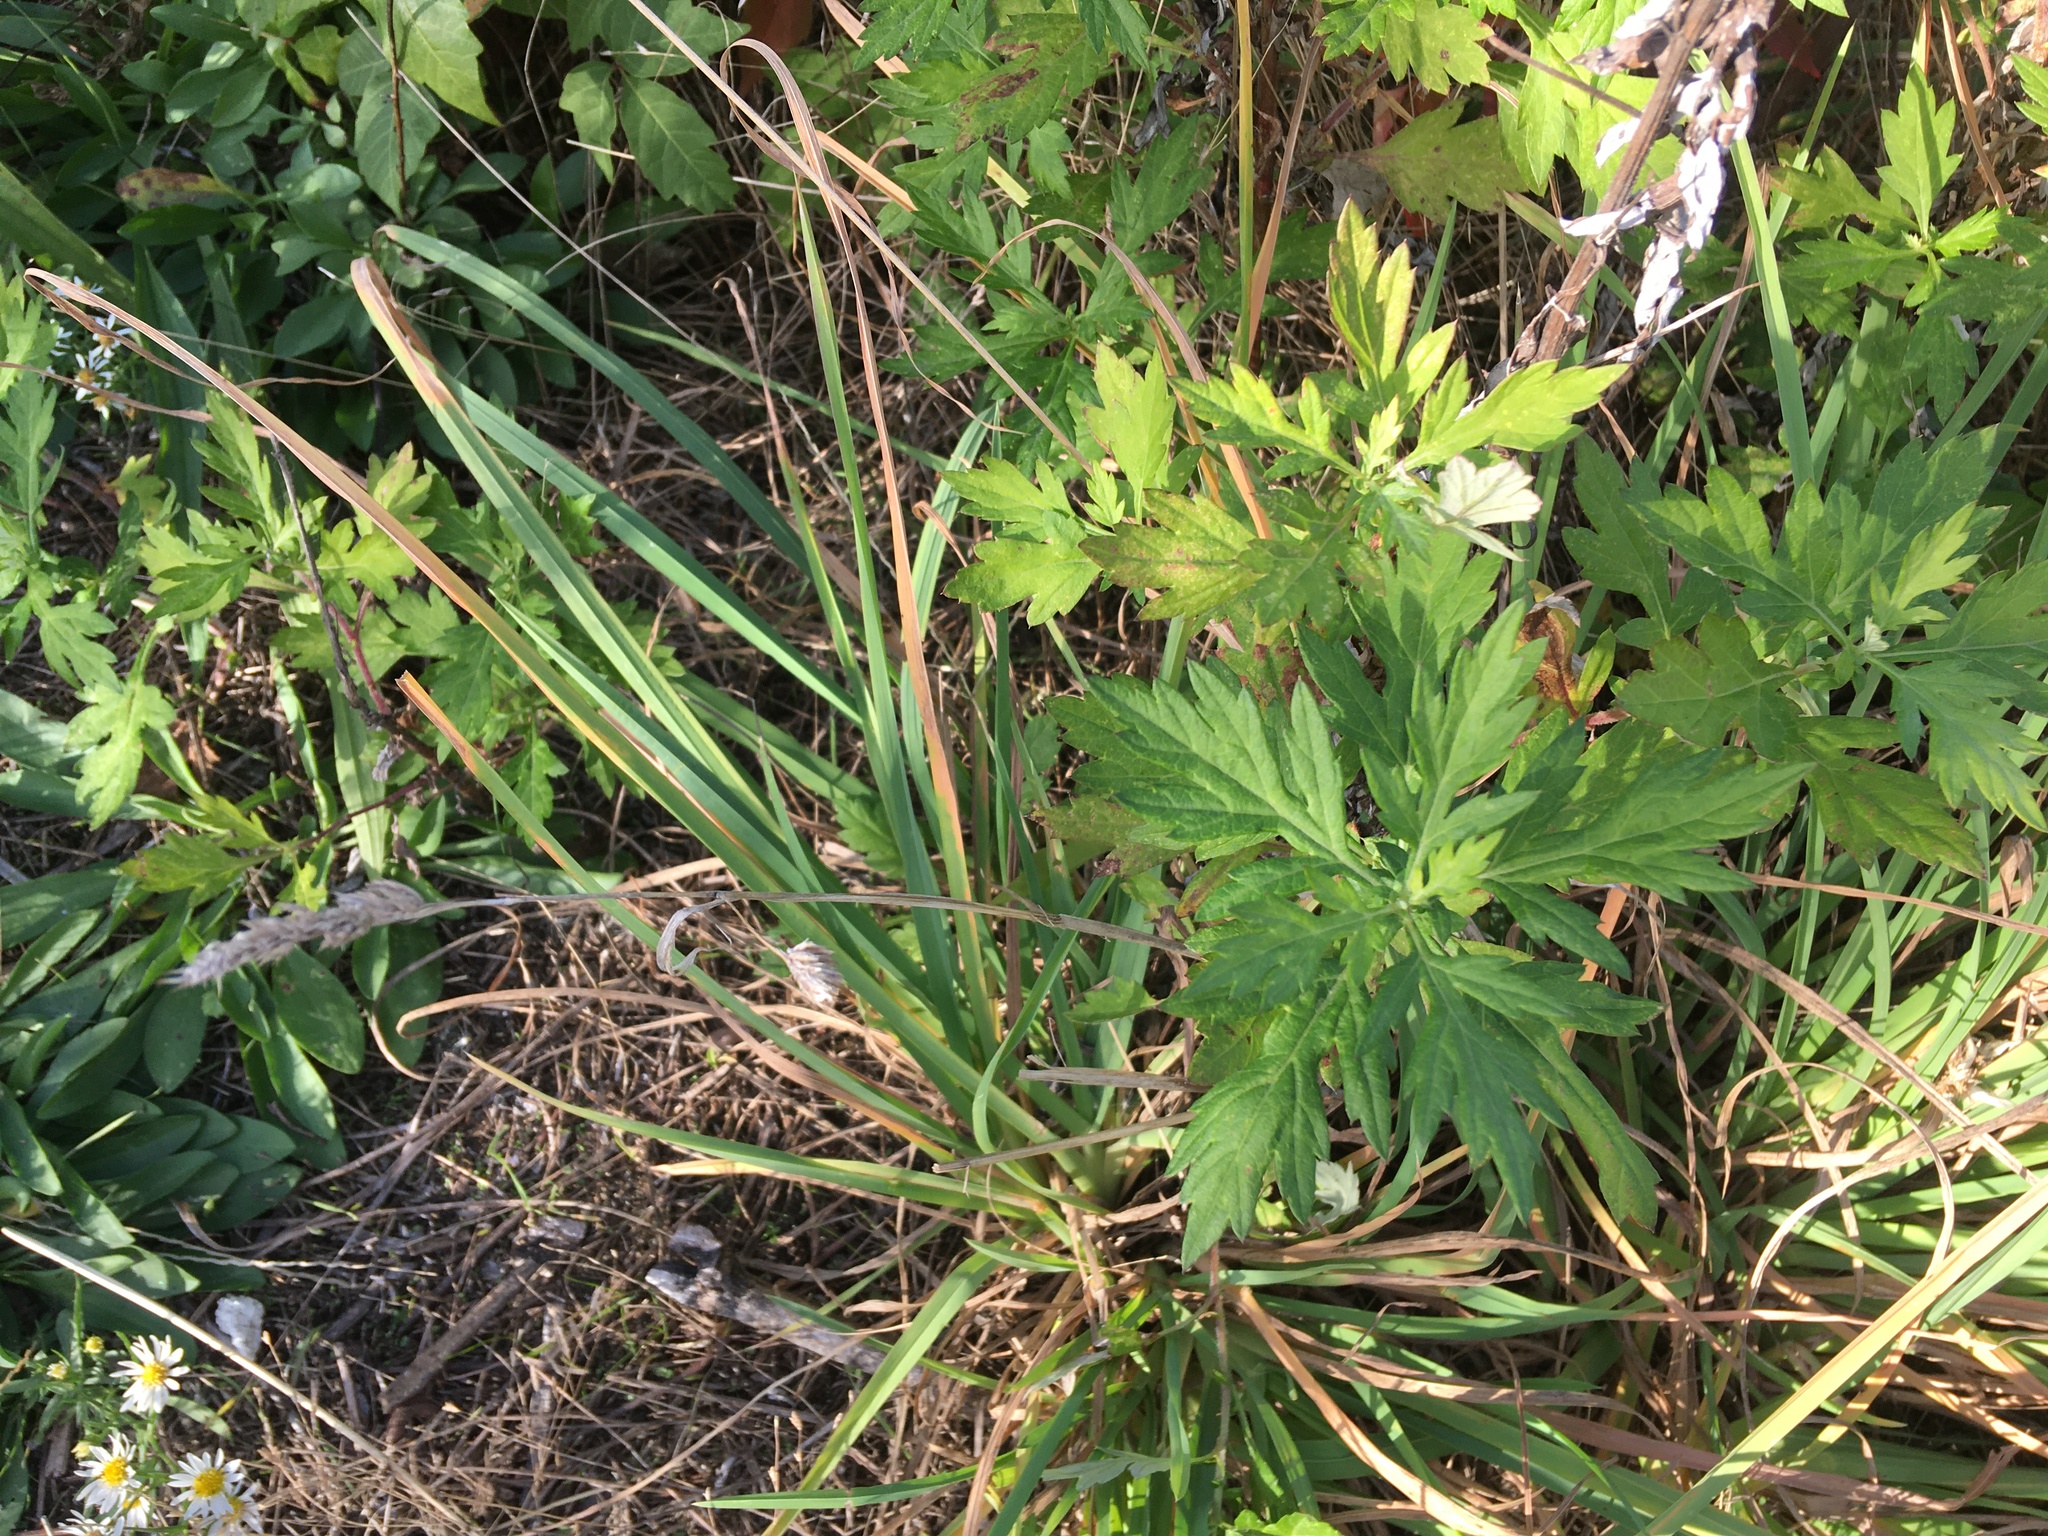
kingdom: Plantae
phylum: Tracheophyta
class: Magnoliopsida
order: Asterales
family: Asteraceae
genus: Artemisia
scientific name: Artemisia vulgaris
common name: Mugwort
